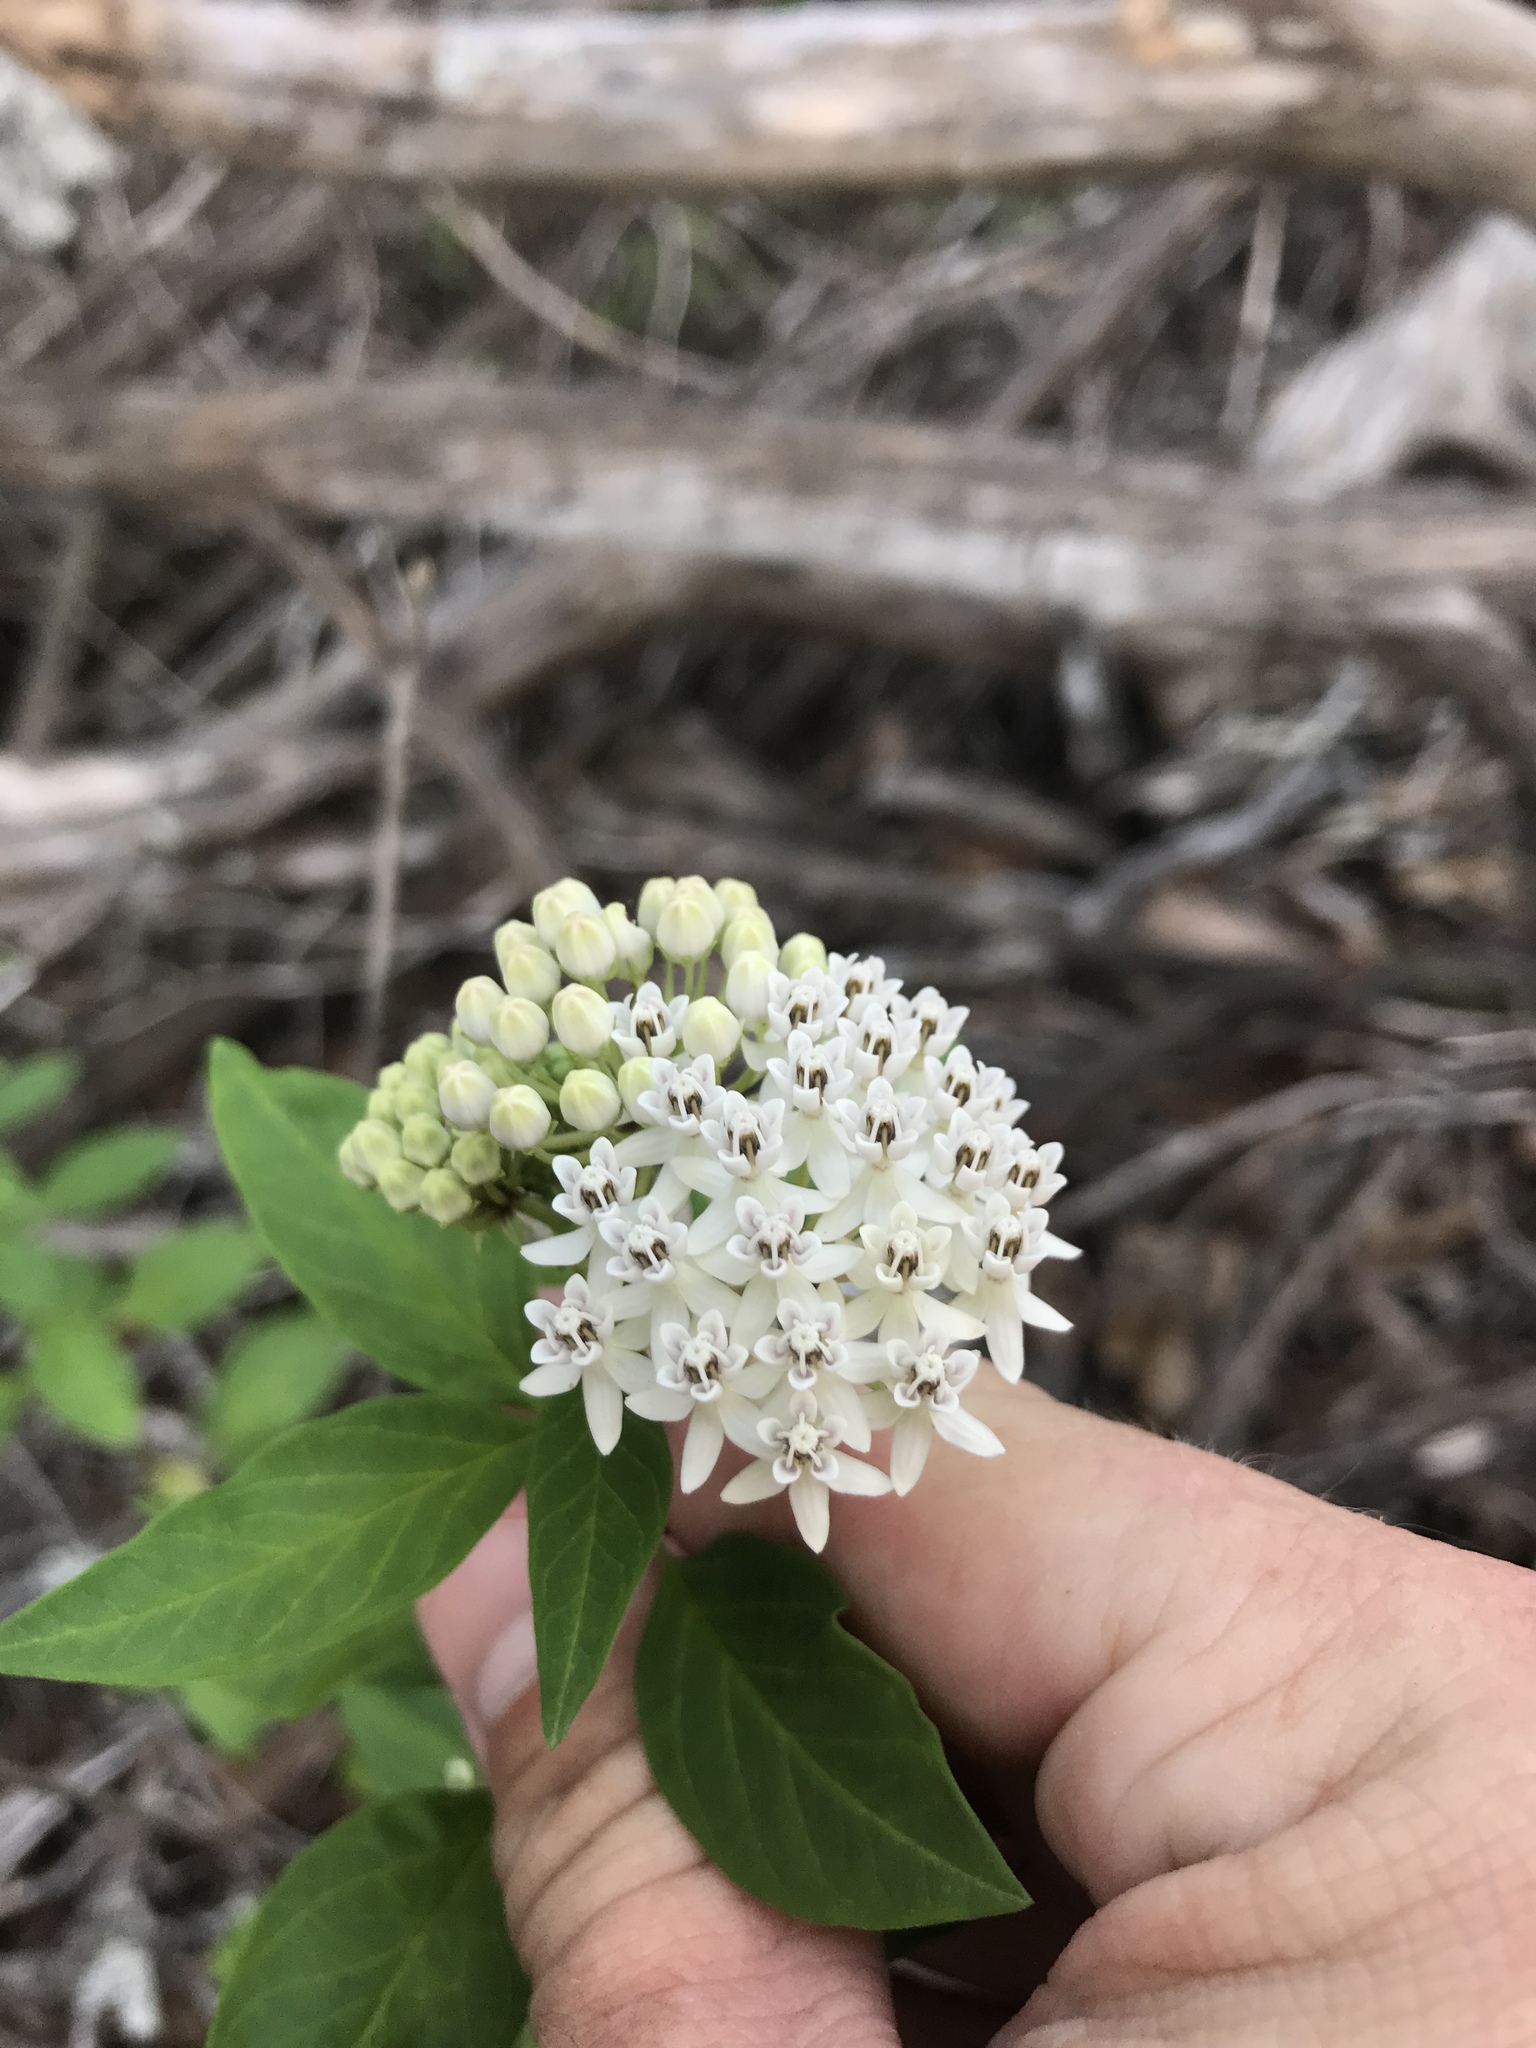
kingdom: Plantae
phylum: Tracheophyta
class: Magnoliopsida
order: Gentianales
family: Apocynaceae
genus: Asclepias
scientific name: Asclepias texana
